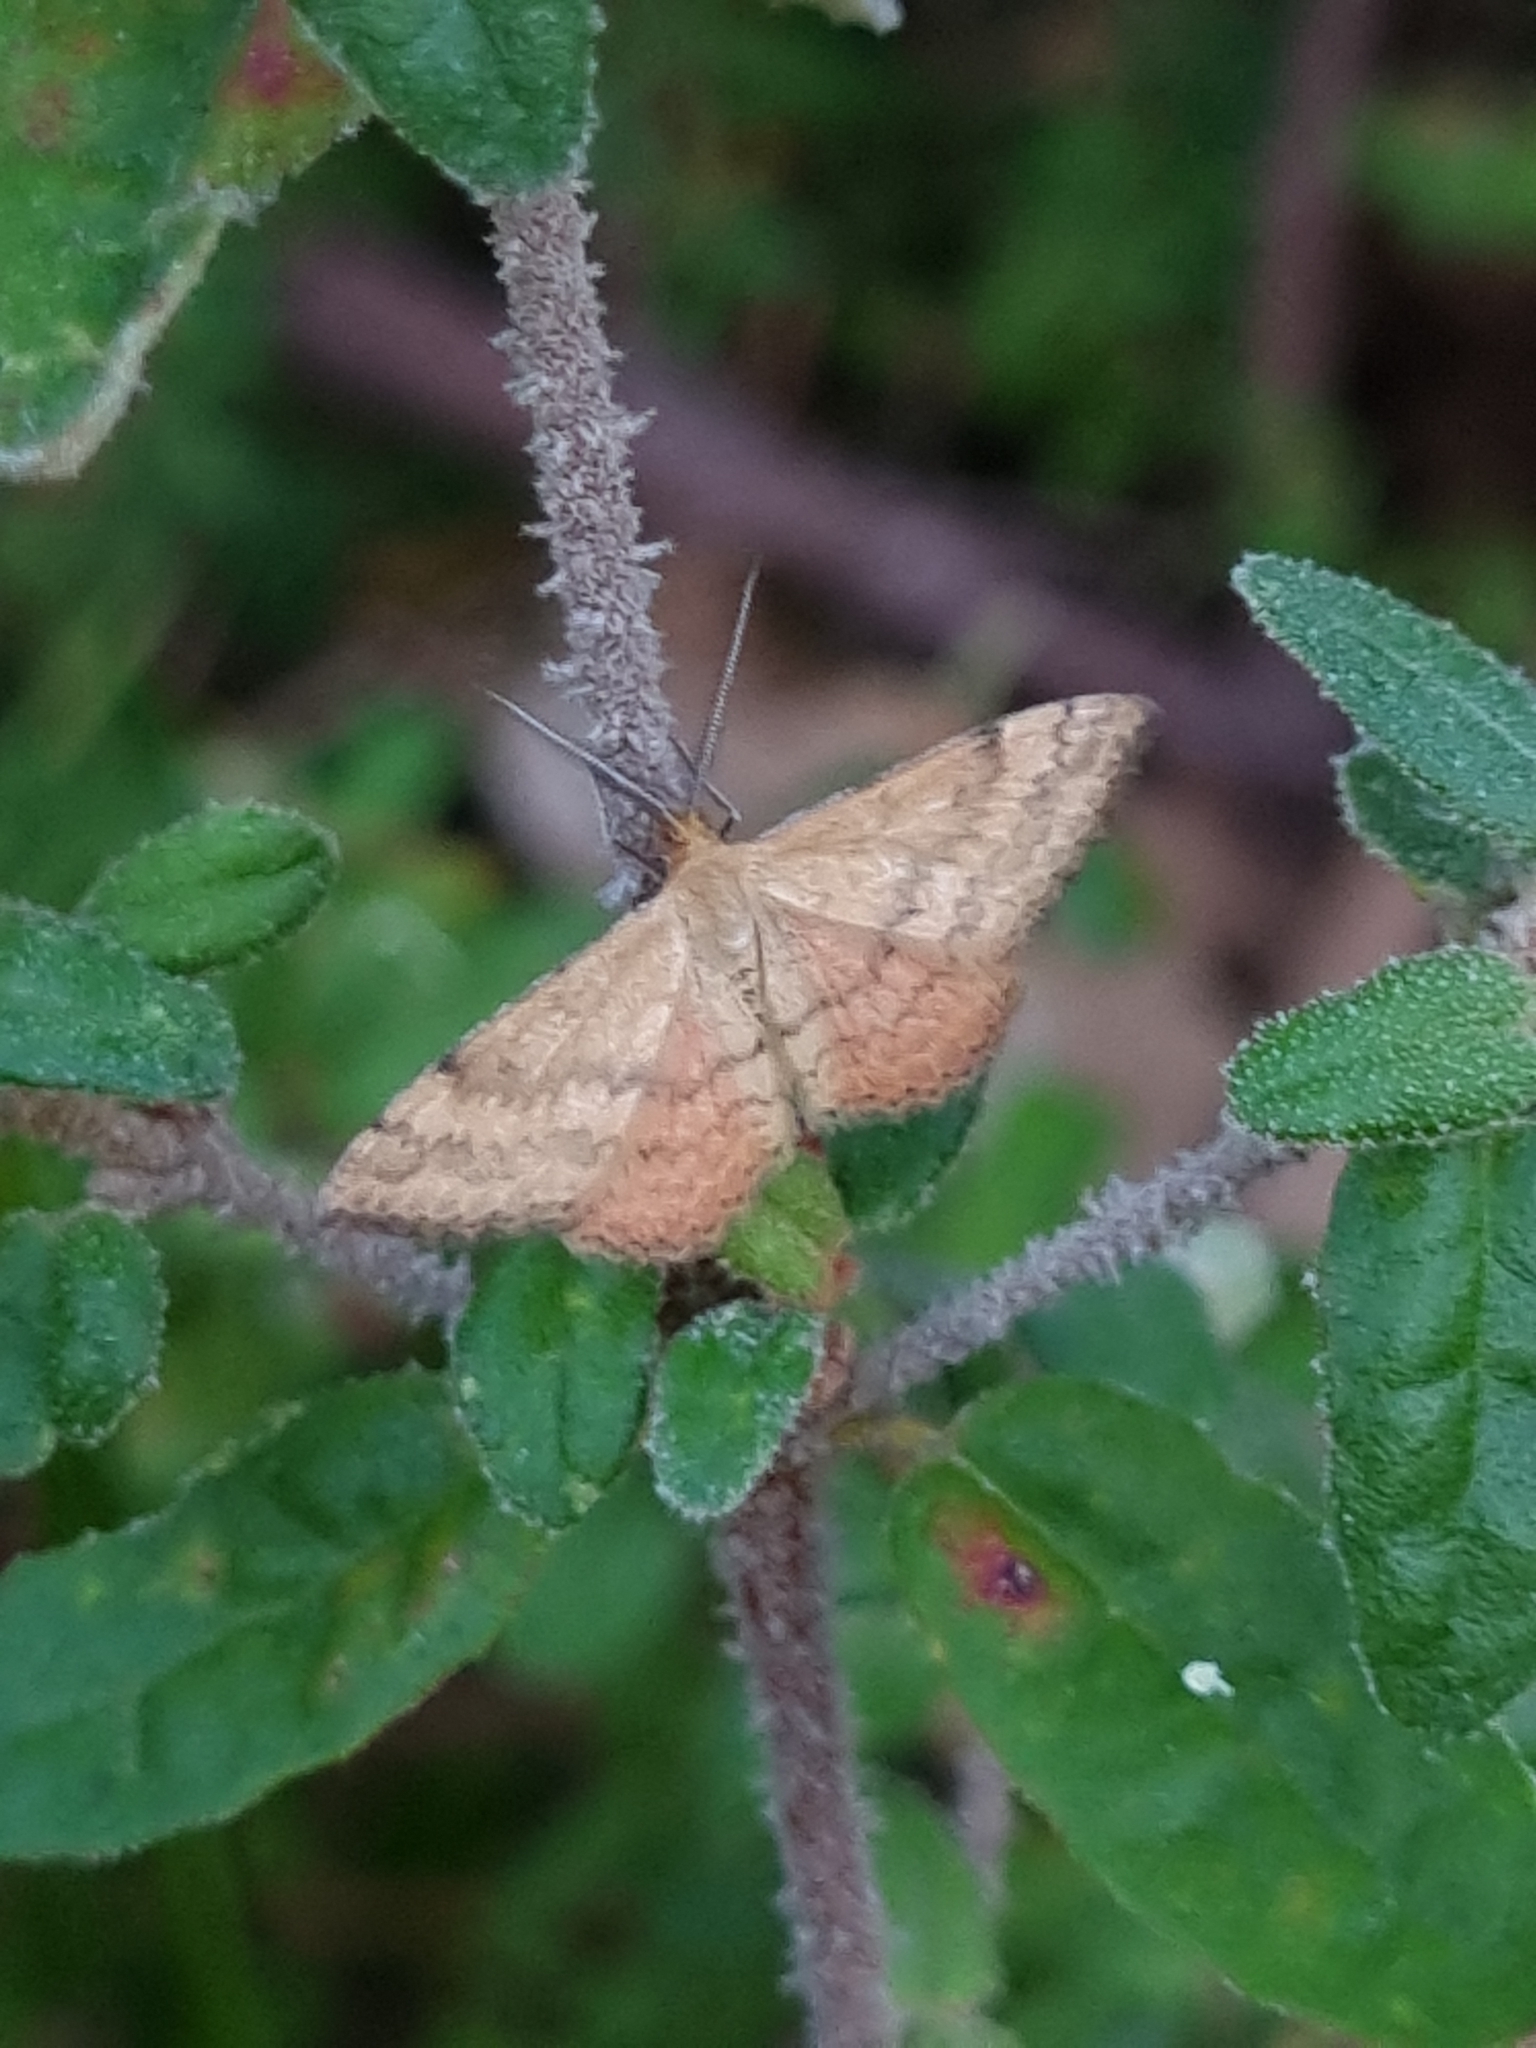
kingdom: Animalia
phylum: Arthropoda
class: Insecta
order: Lepidoptera
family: Geometridae
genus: Scopula
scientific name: Scopula rubraria
